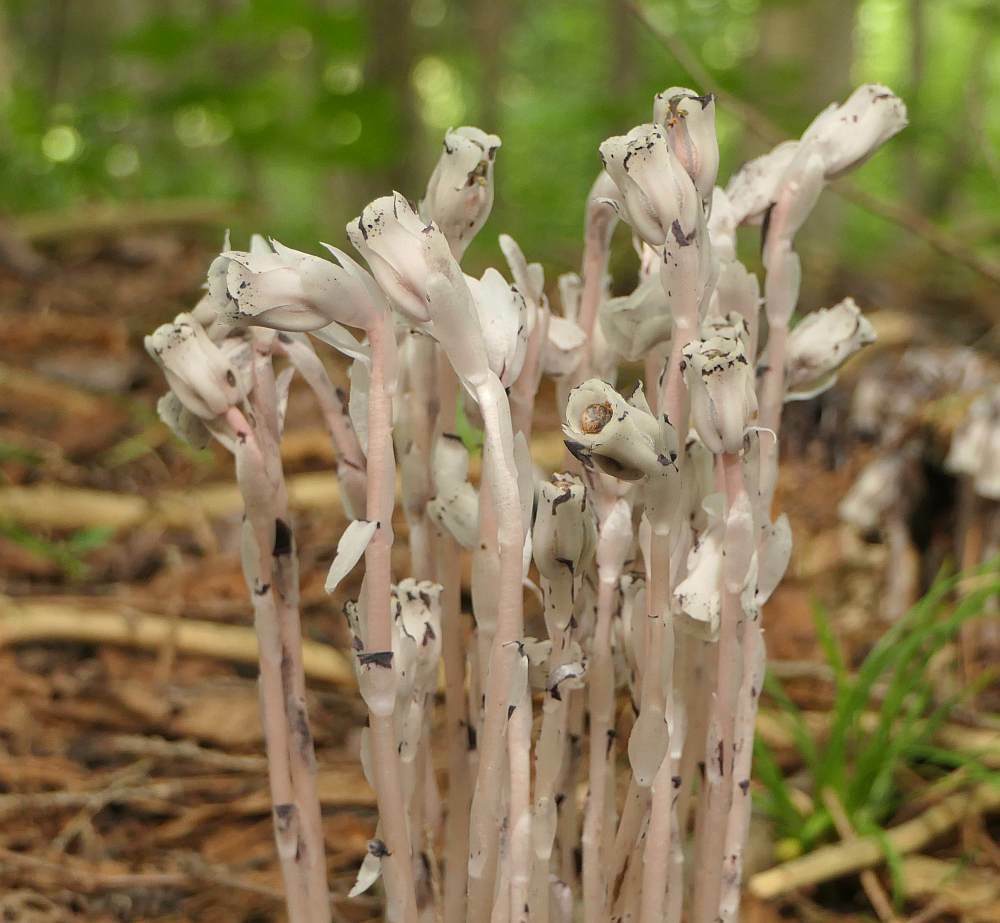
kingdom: Plantae
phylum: Tracheophyta
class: Magnoliopsida
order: Ericales
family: Ericaceae
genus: Monotropa
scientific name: Monotropa uniflora
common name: Convulsion root
